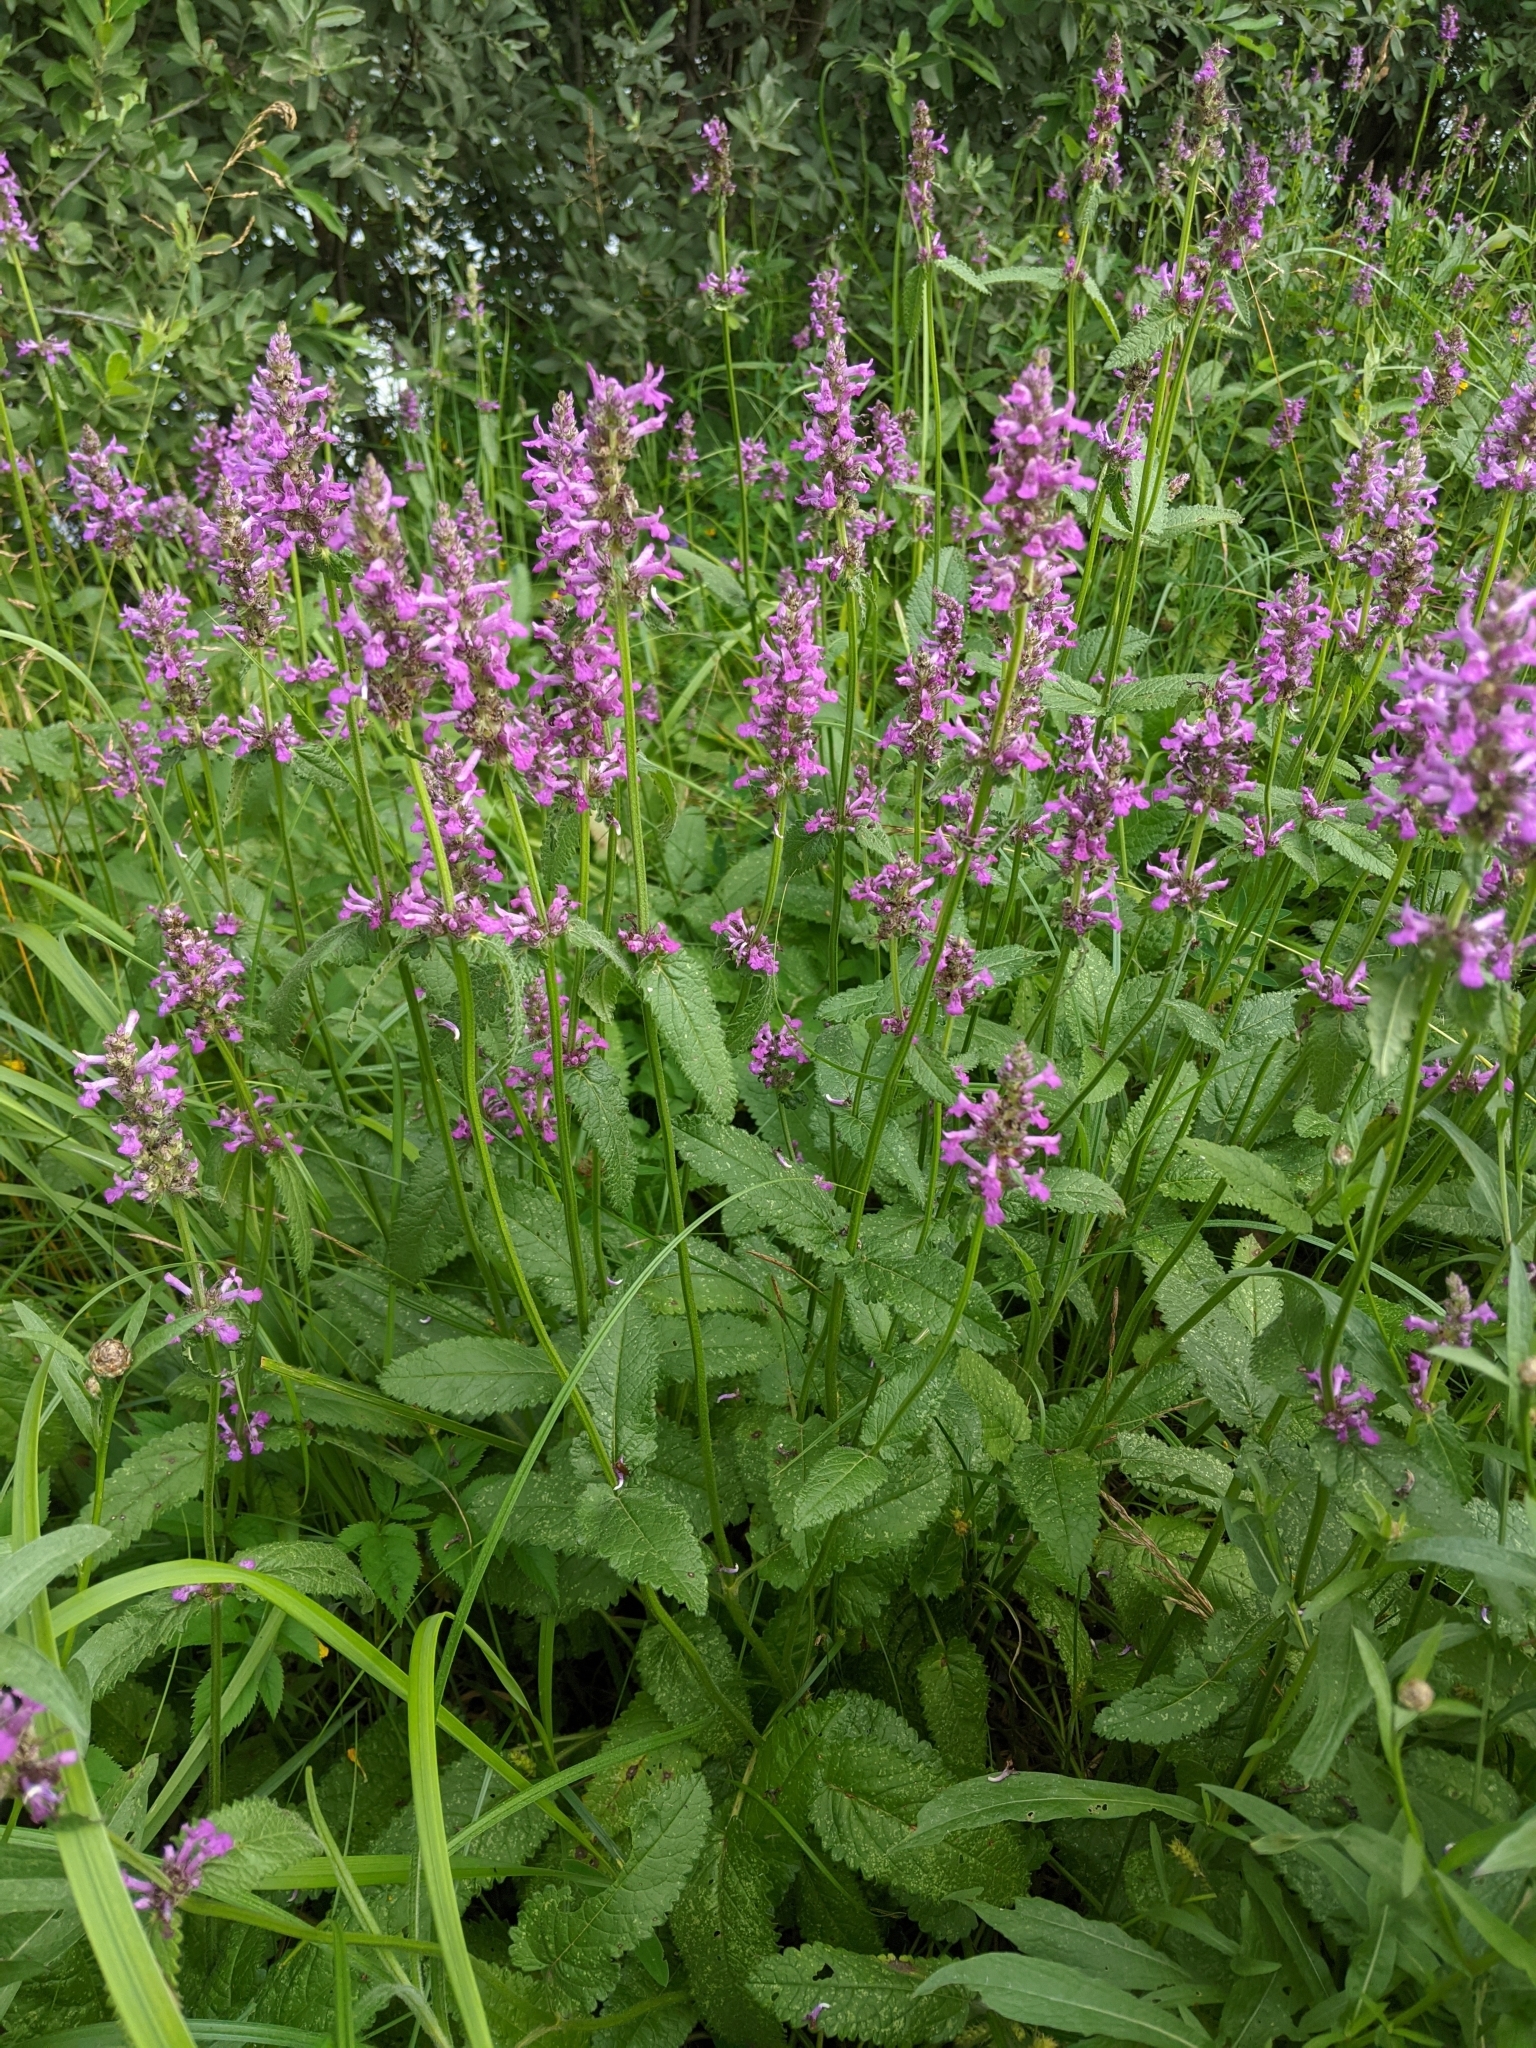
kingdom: Plantae
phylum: Tracheophyta
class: Magnoliopsida
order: Lamiales
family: Lamiaceae
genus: Betonica
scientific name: Betonica officinalis
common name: Bishop's-wort
